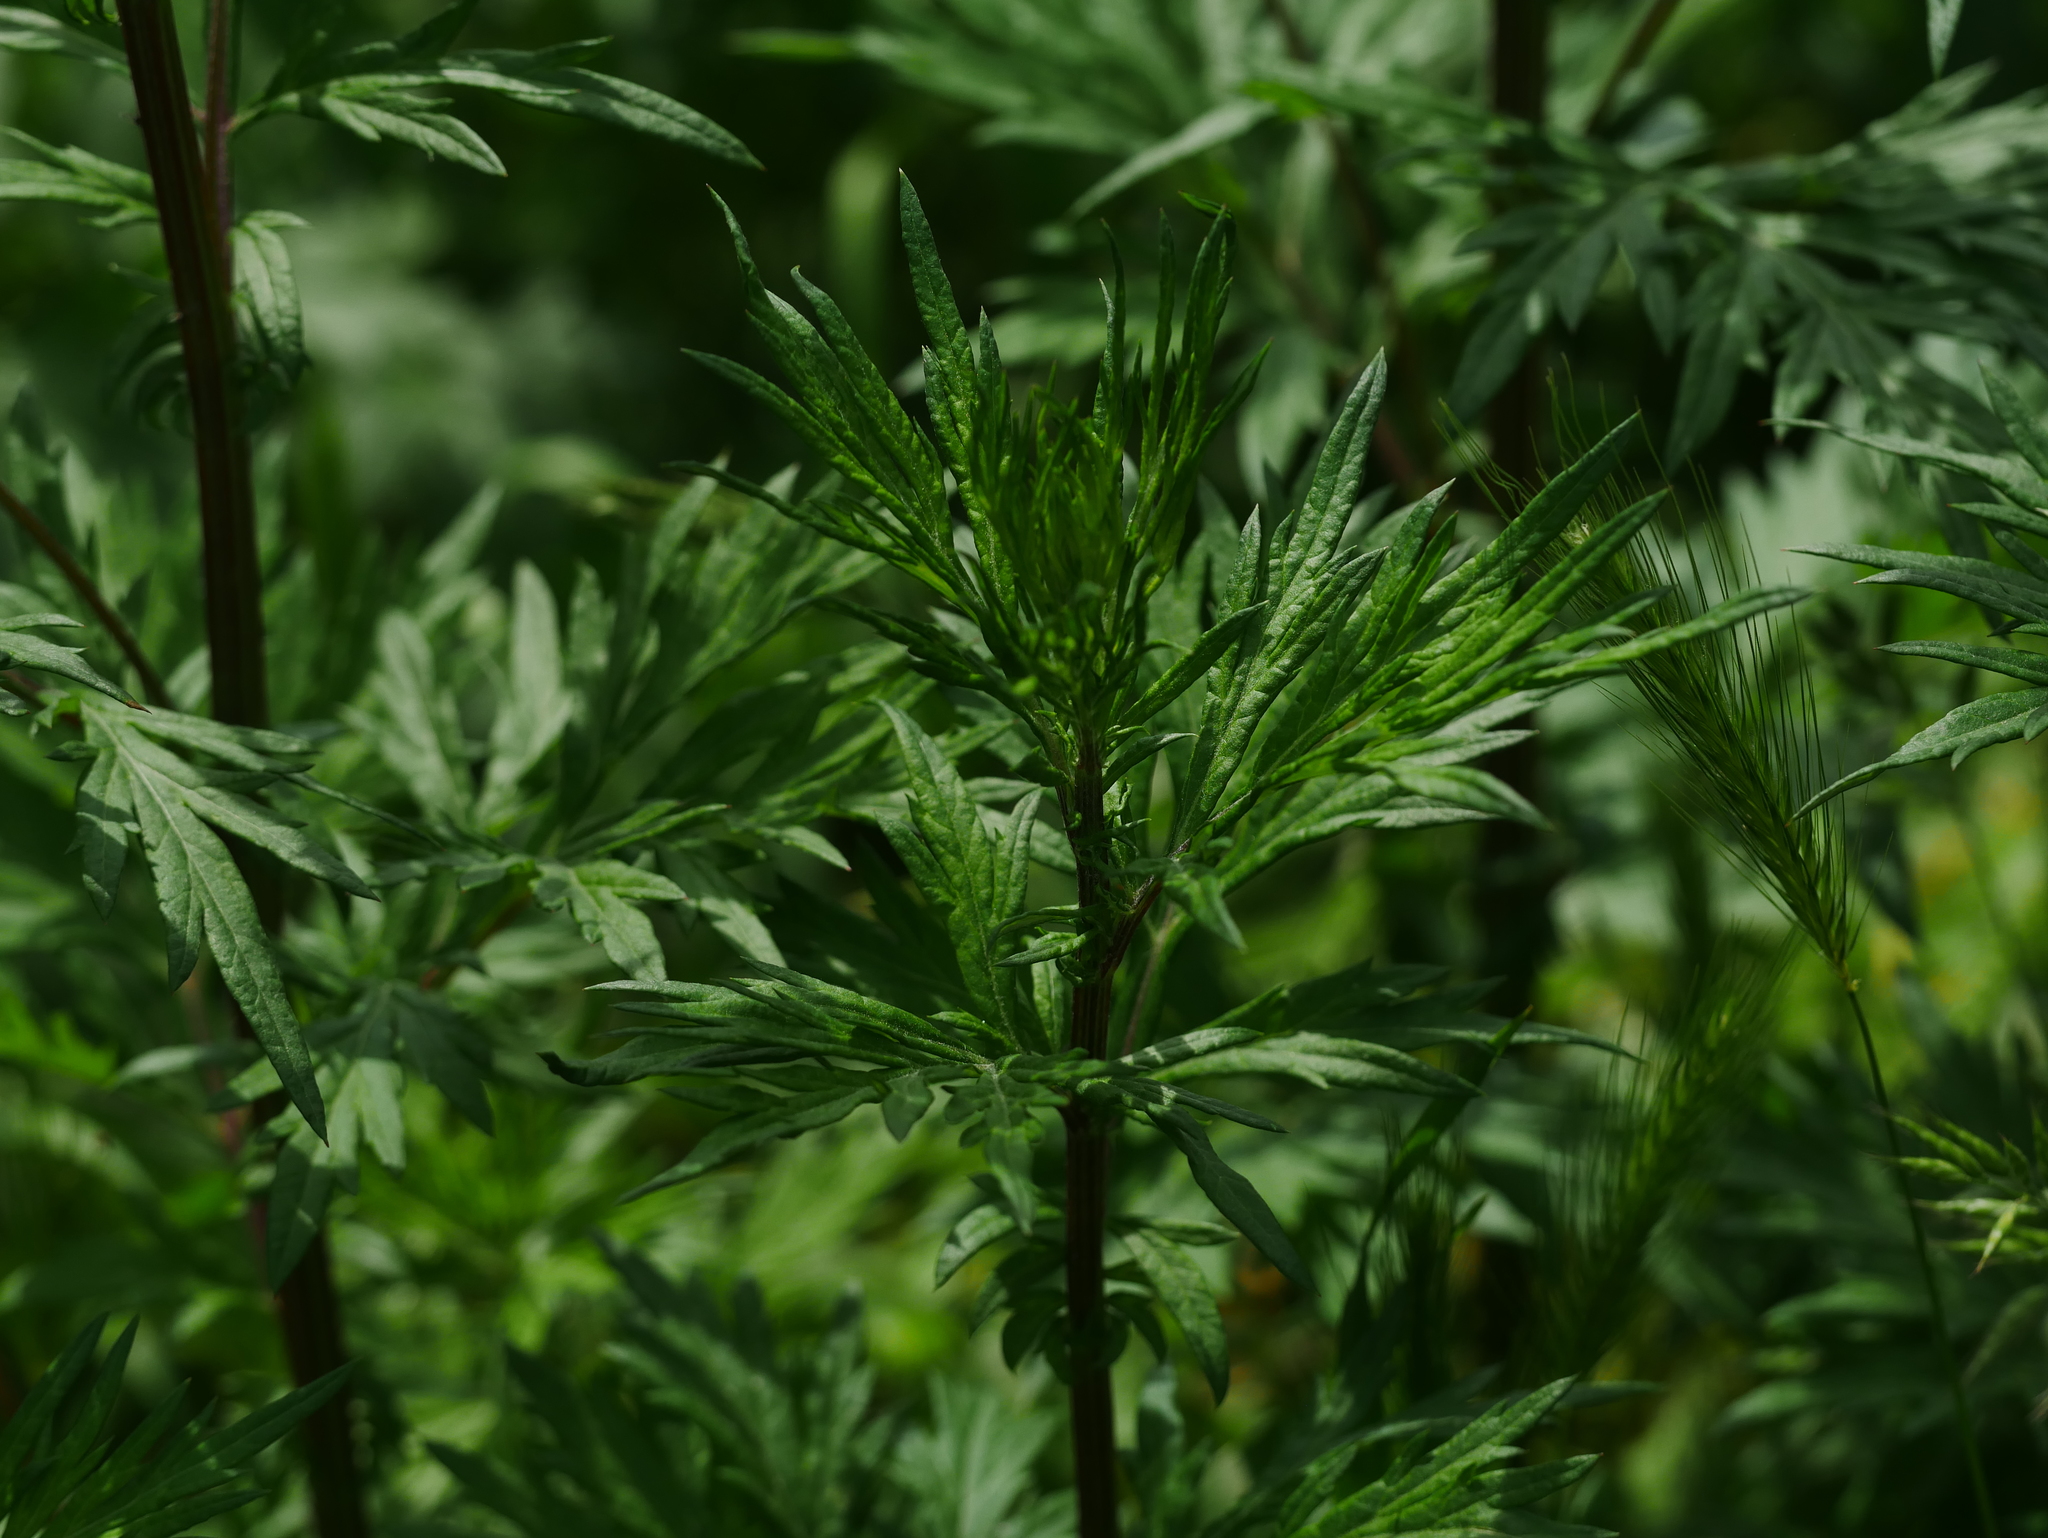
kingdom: Plantae
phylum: Tracheophyta
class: Magnoliopsida
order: Asterales
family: Asteraceae
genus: Artemisia
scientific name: Artemisia vulgaris
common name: Mugwort
